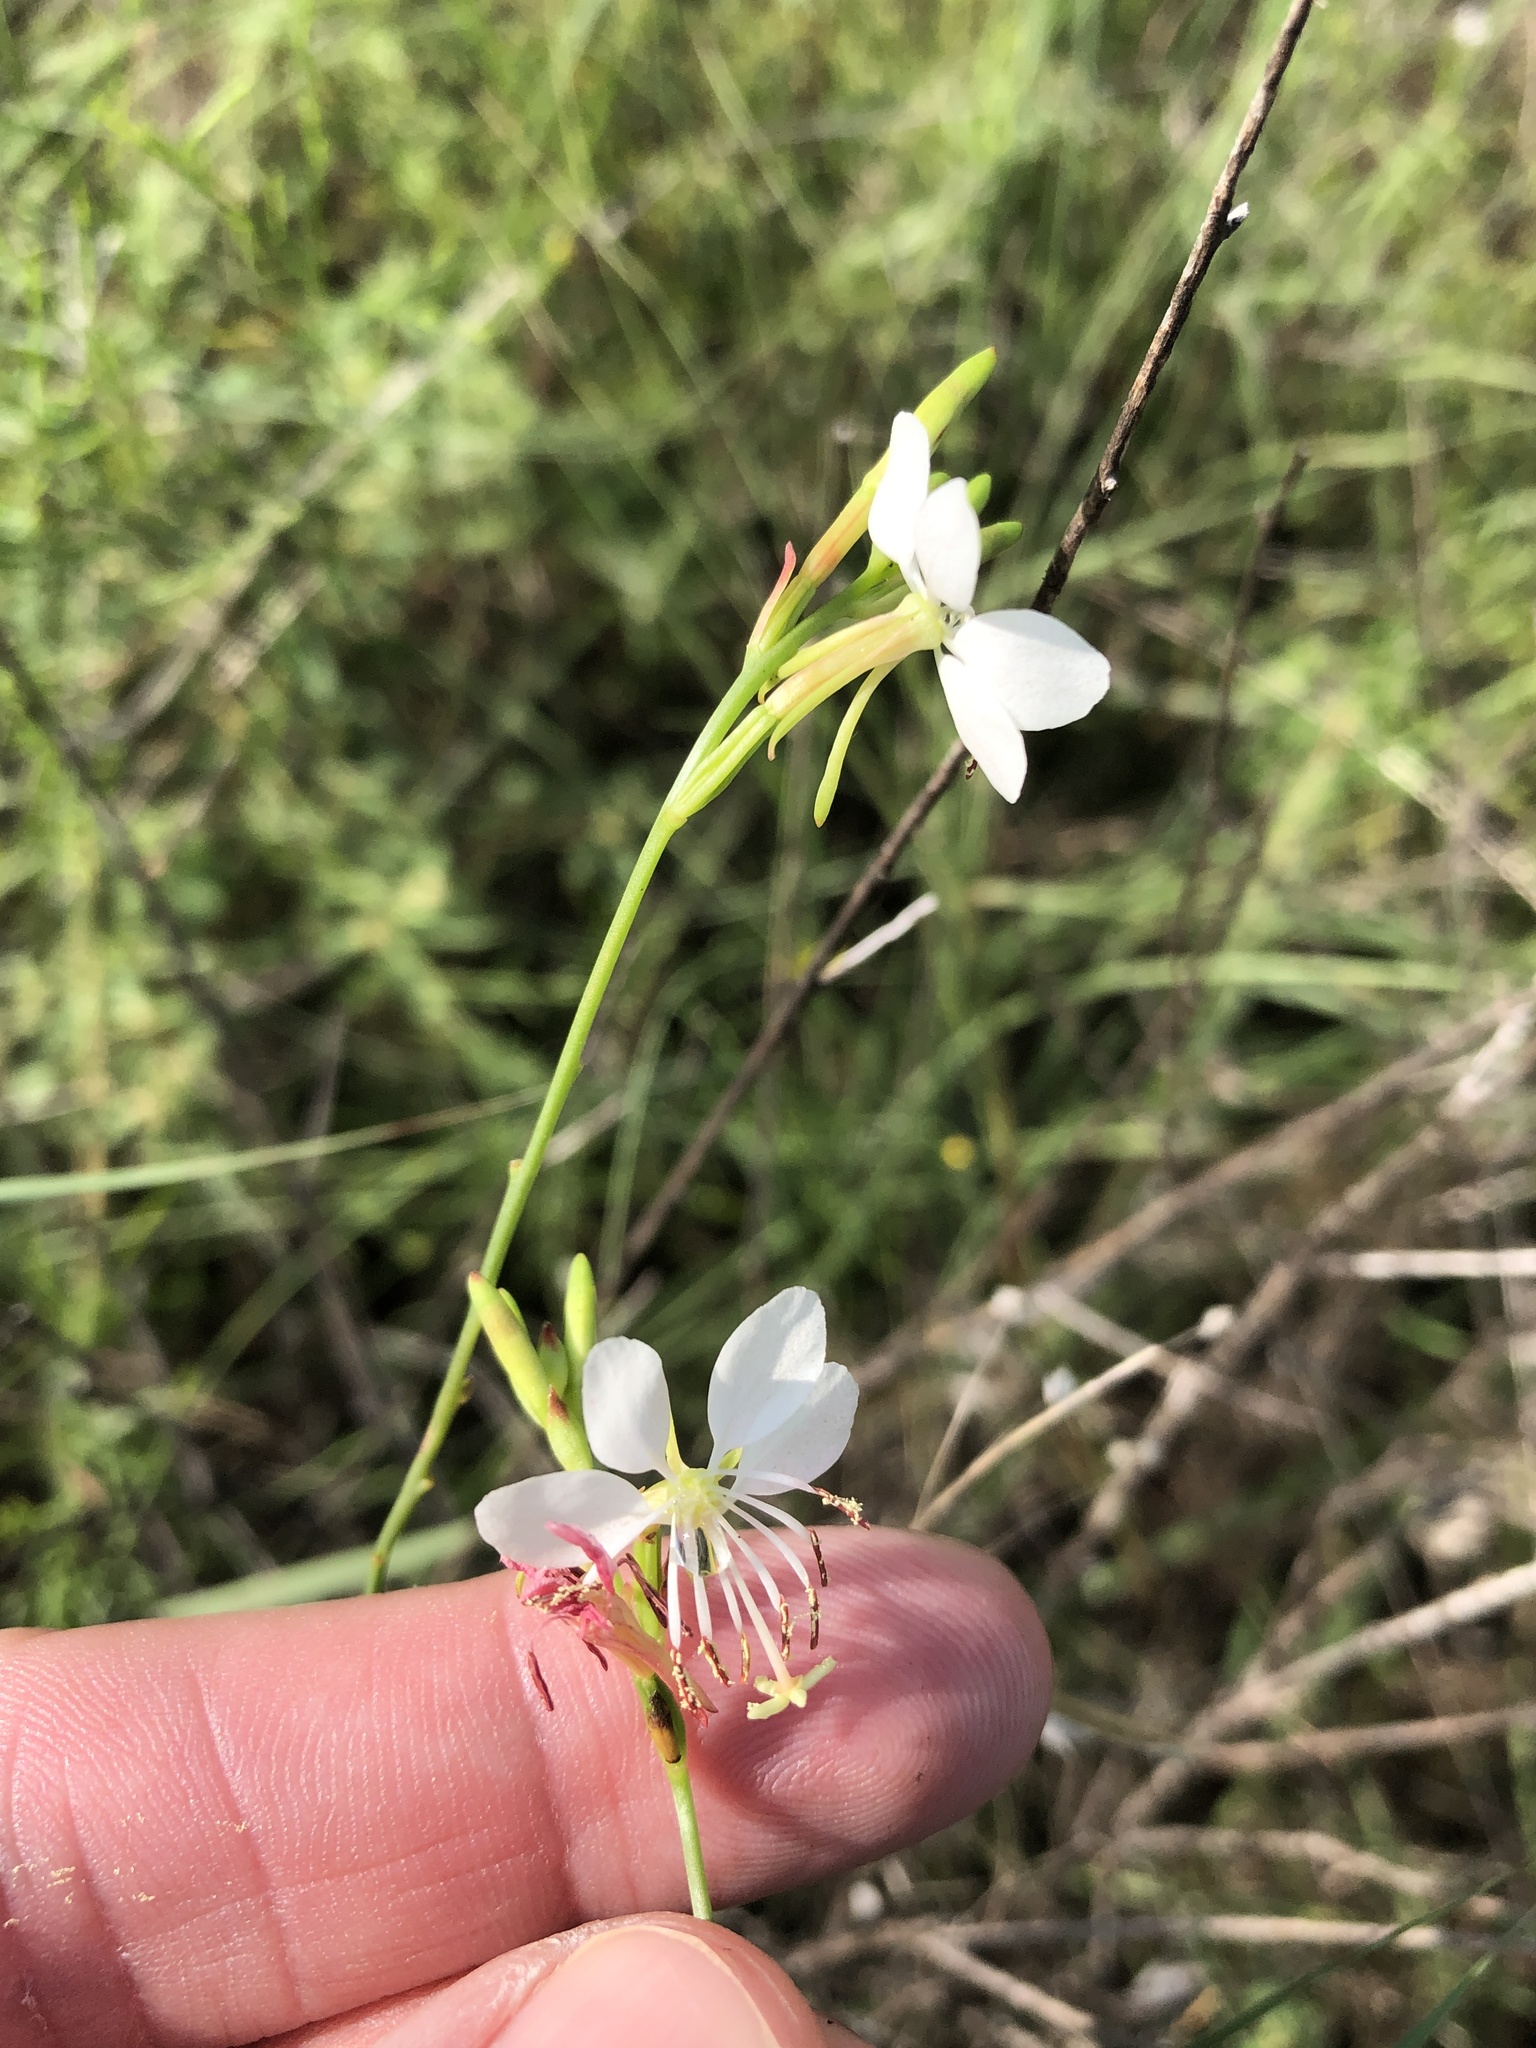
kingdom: Plantae
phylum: Tracheophyta
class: Magnoliopsida
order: Myrtales
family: Onagraceae
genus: Oenothera
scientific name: Oenothera suffulta
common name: Kisses
